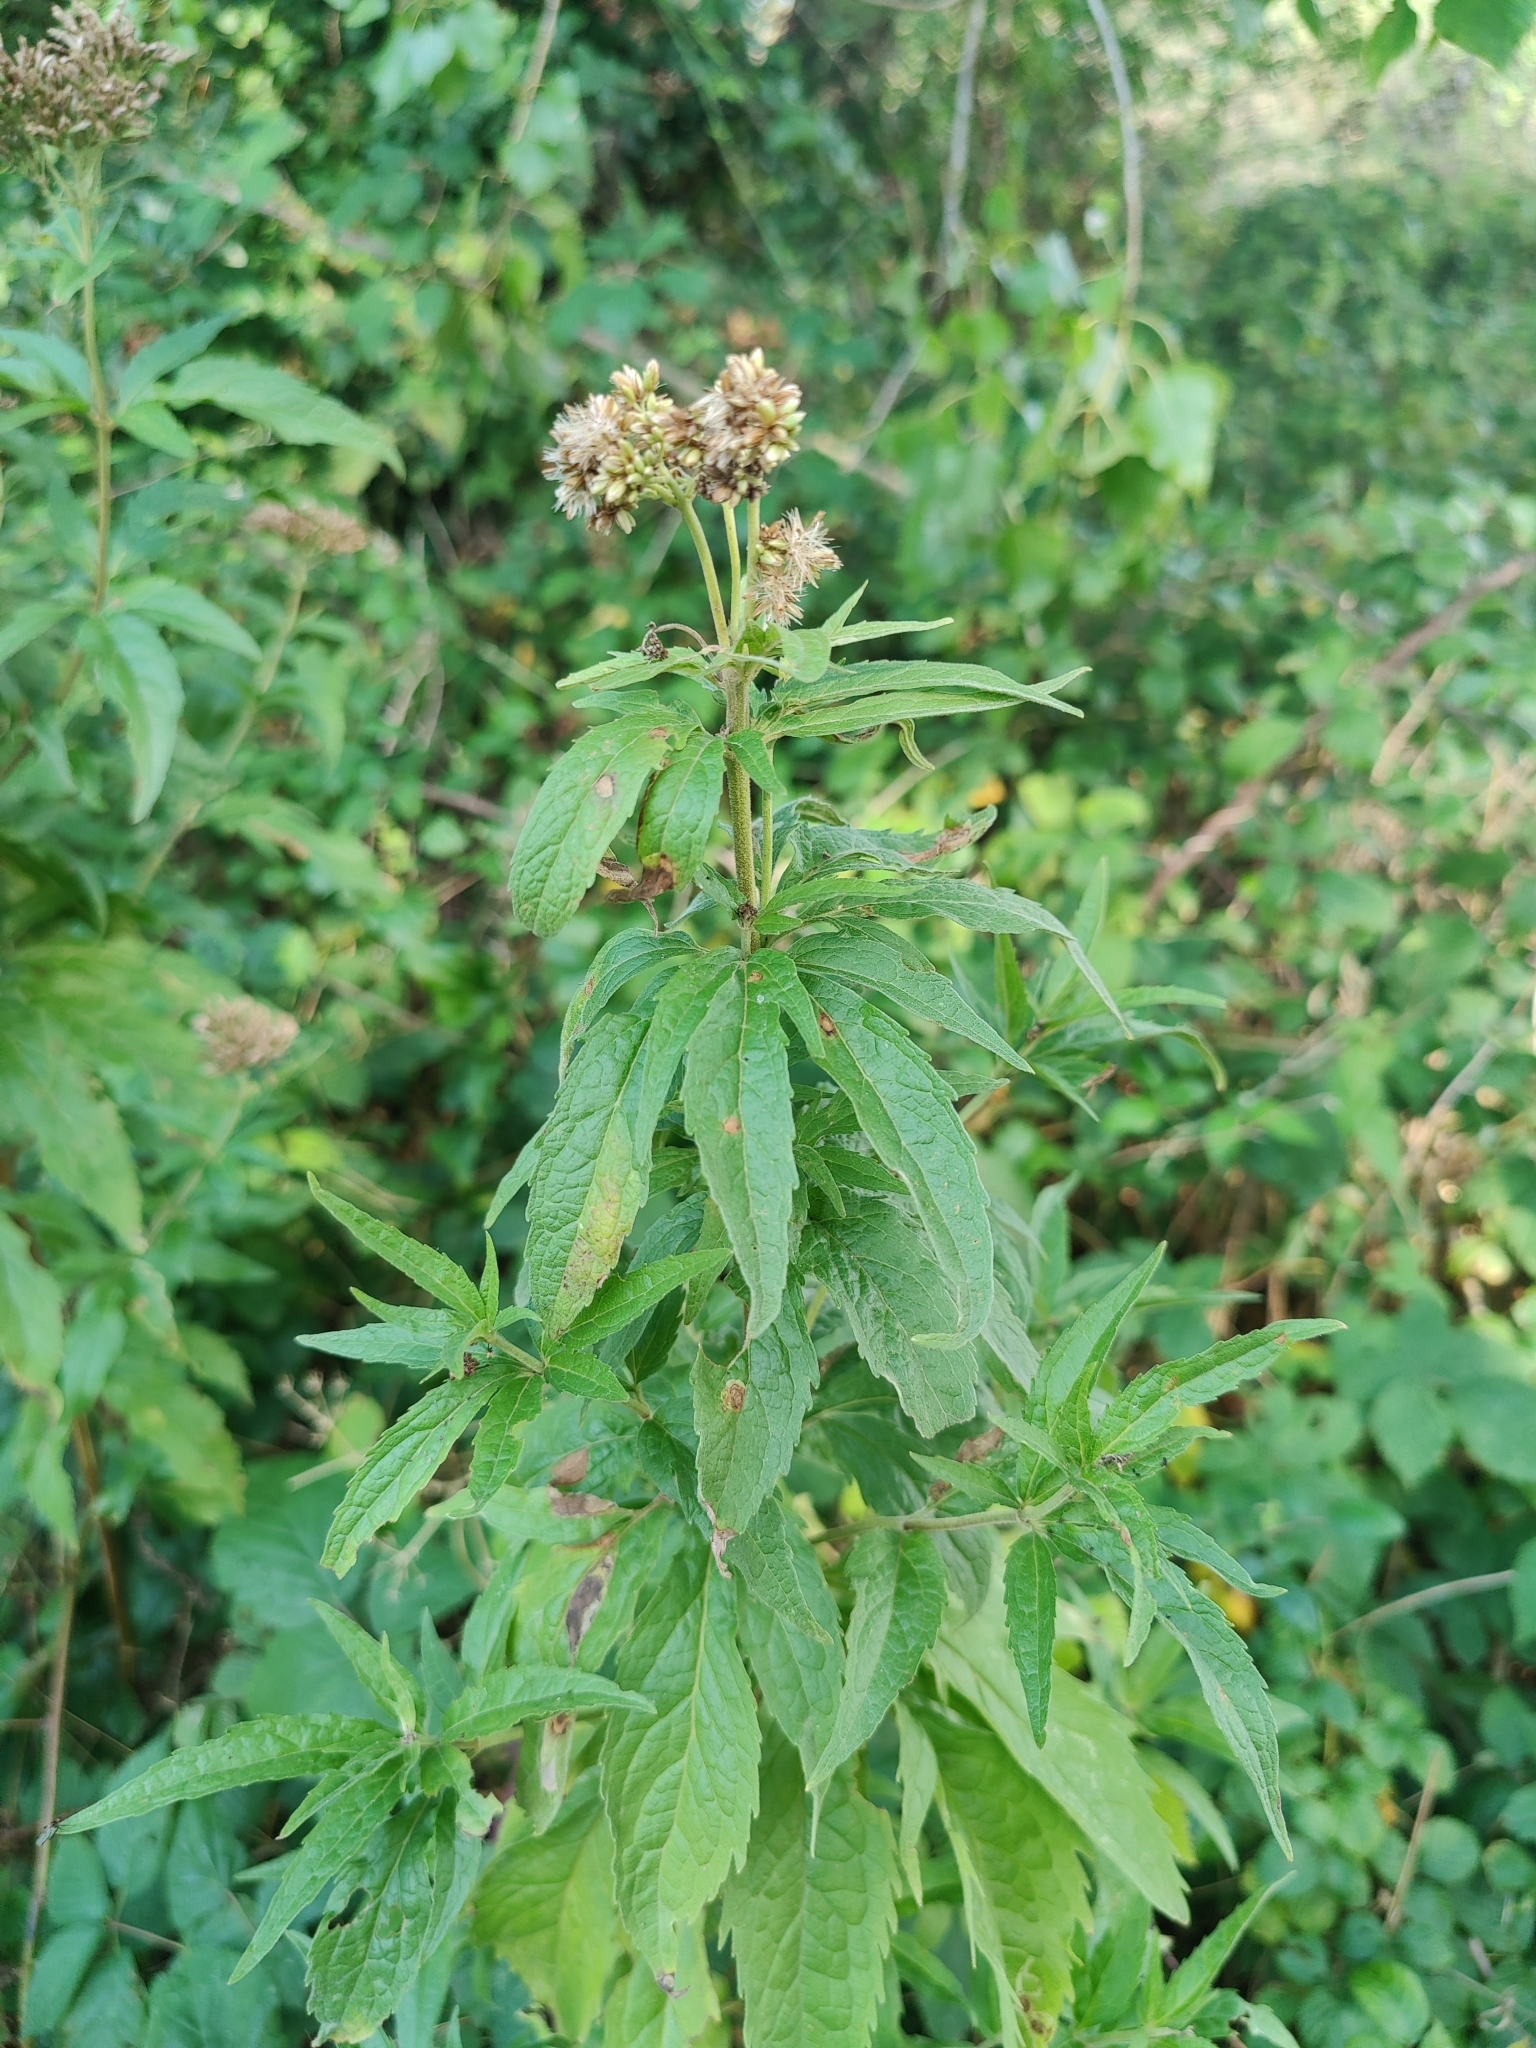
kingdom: Plantae
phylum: Tracheophyta
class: Magnoliopsida
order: Asterales
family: Asteraceae
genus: Eupatorium
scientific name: Eupatorium cannabinum
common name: Hemp-agrimony
